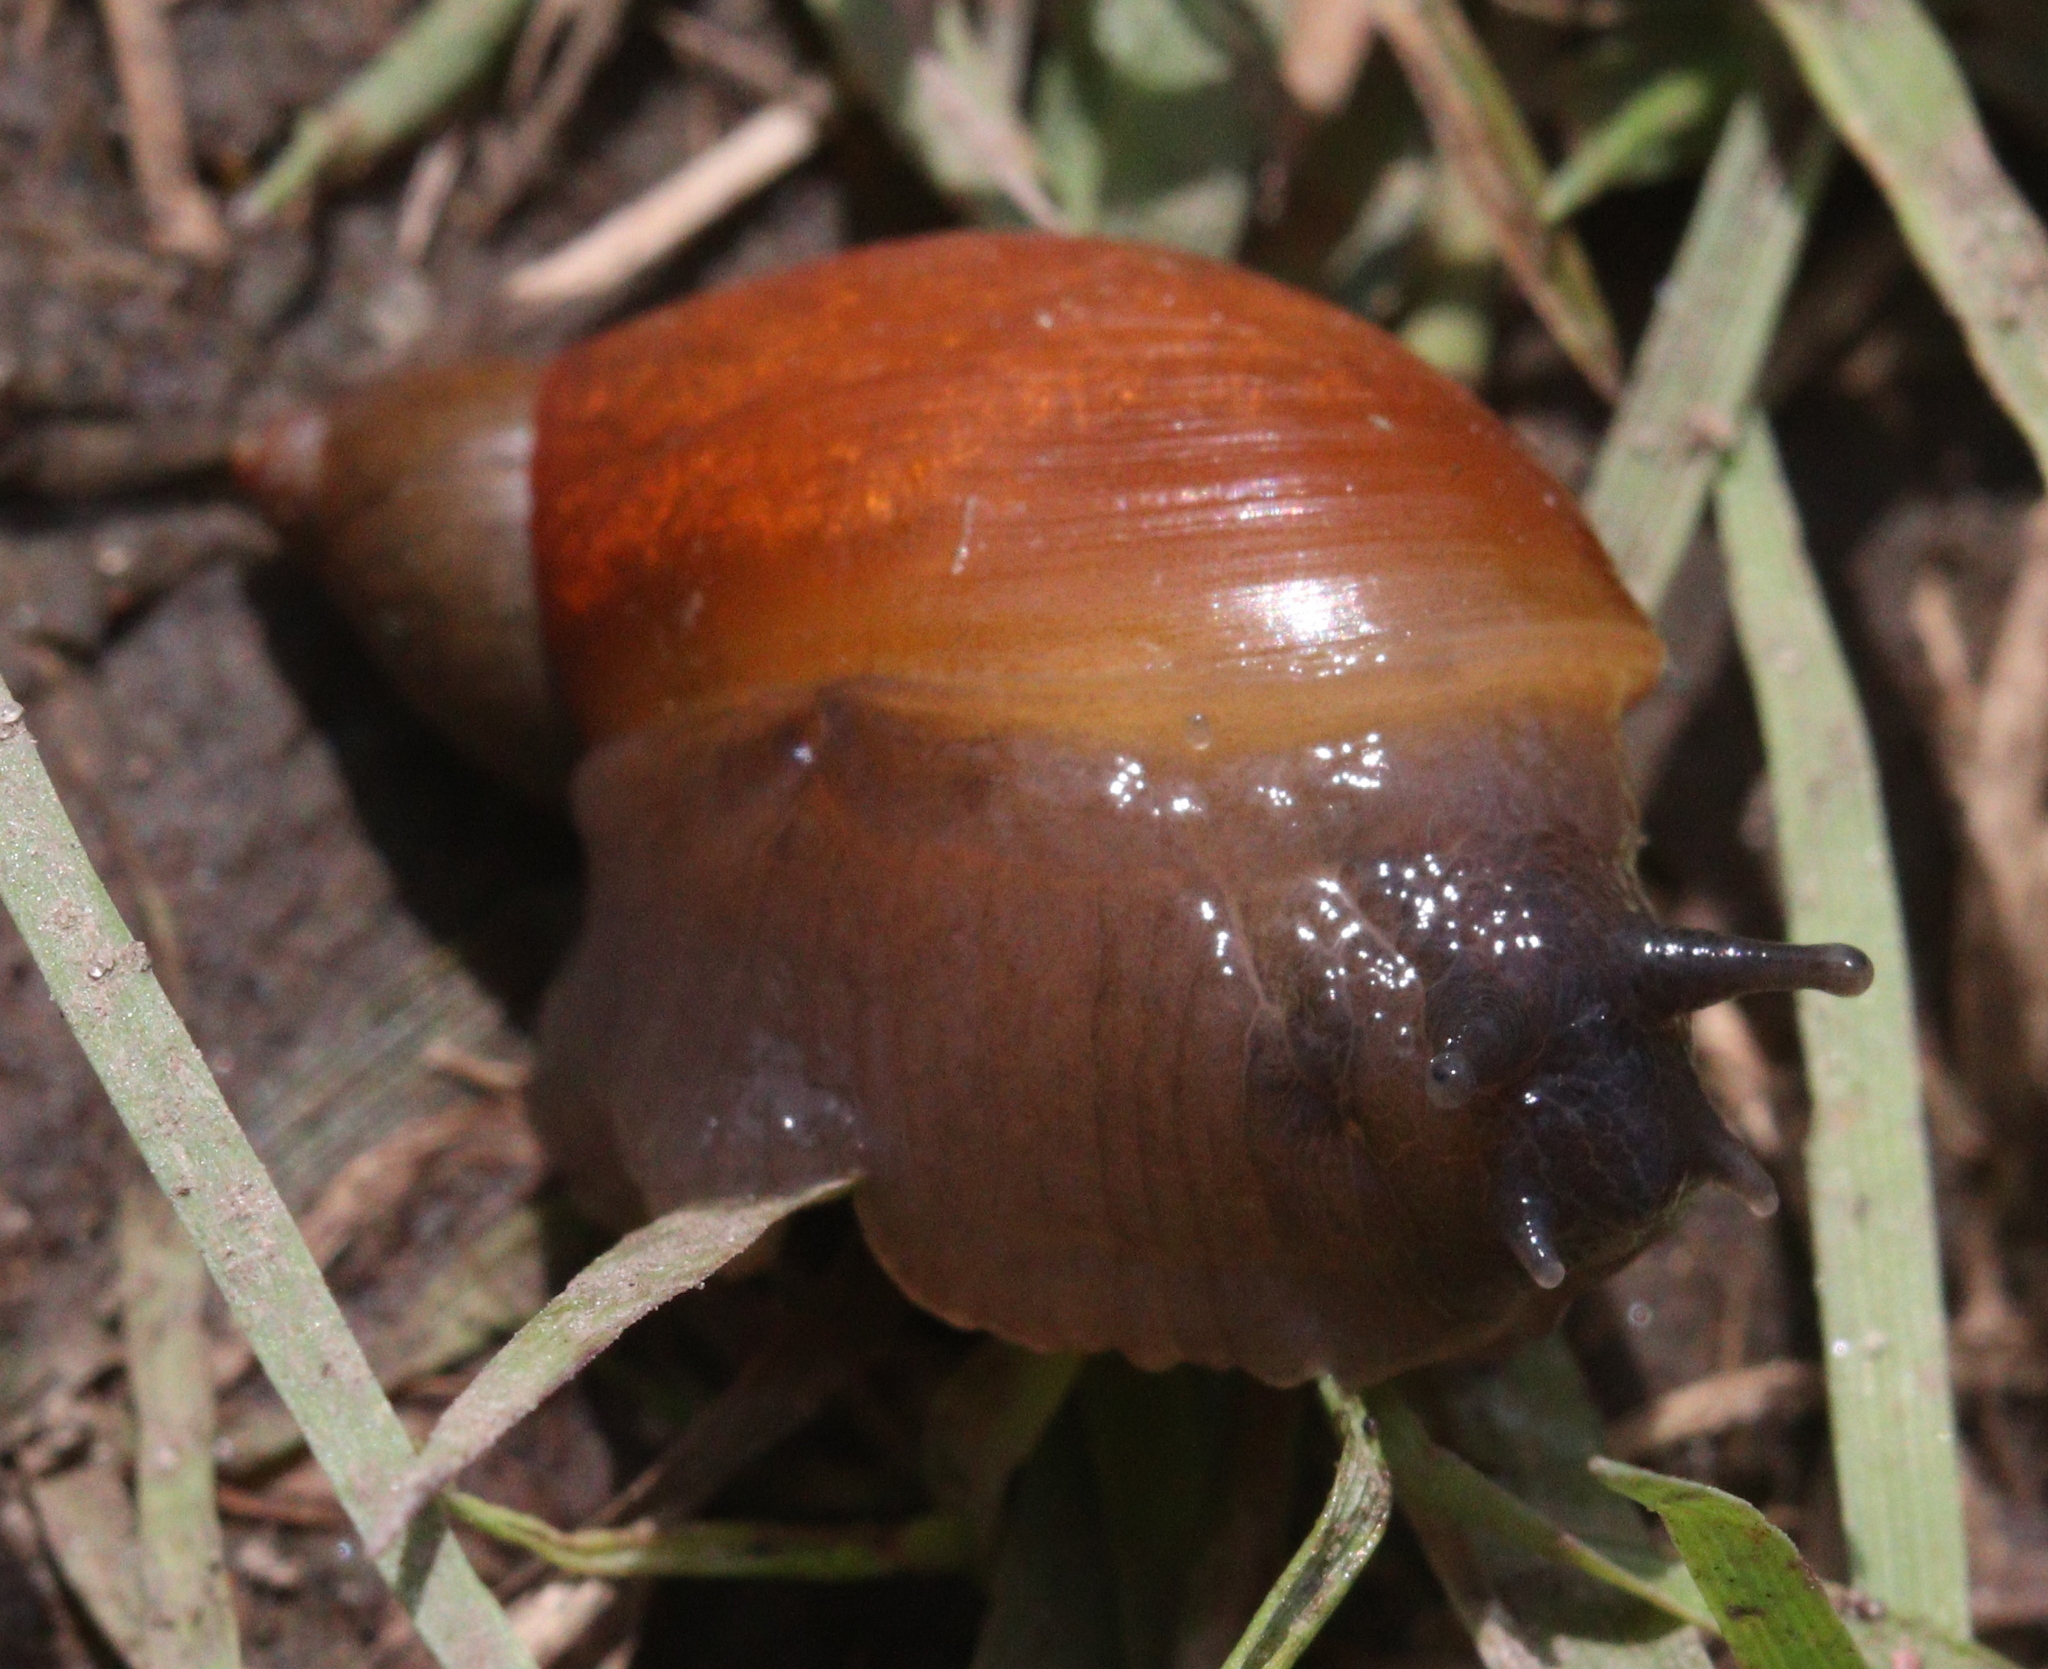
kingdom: Animalia
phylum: Mollusca
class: Gastropoda
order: Stylommatophora
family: Succineidae
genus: Succinea
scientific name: Succinea putris
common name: European ambersnail
